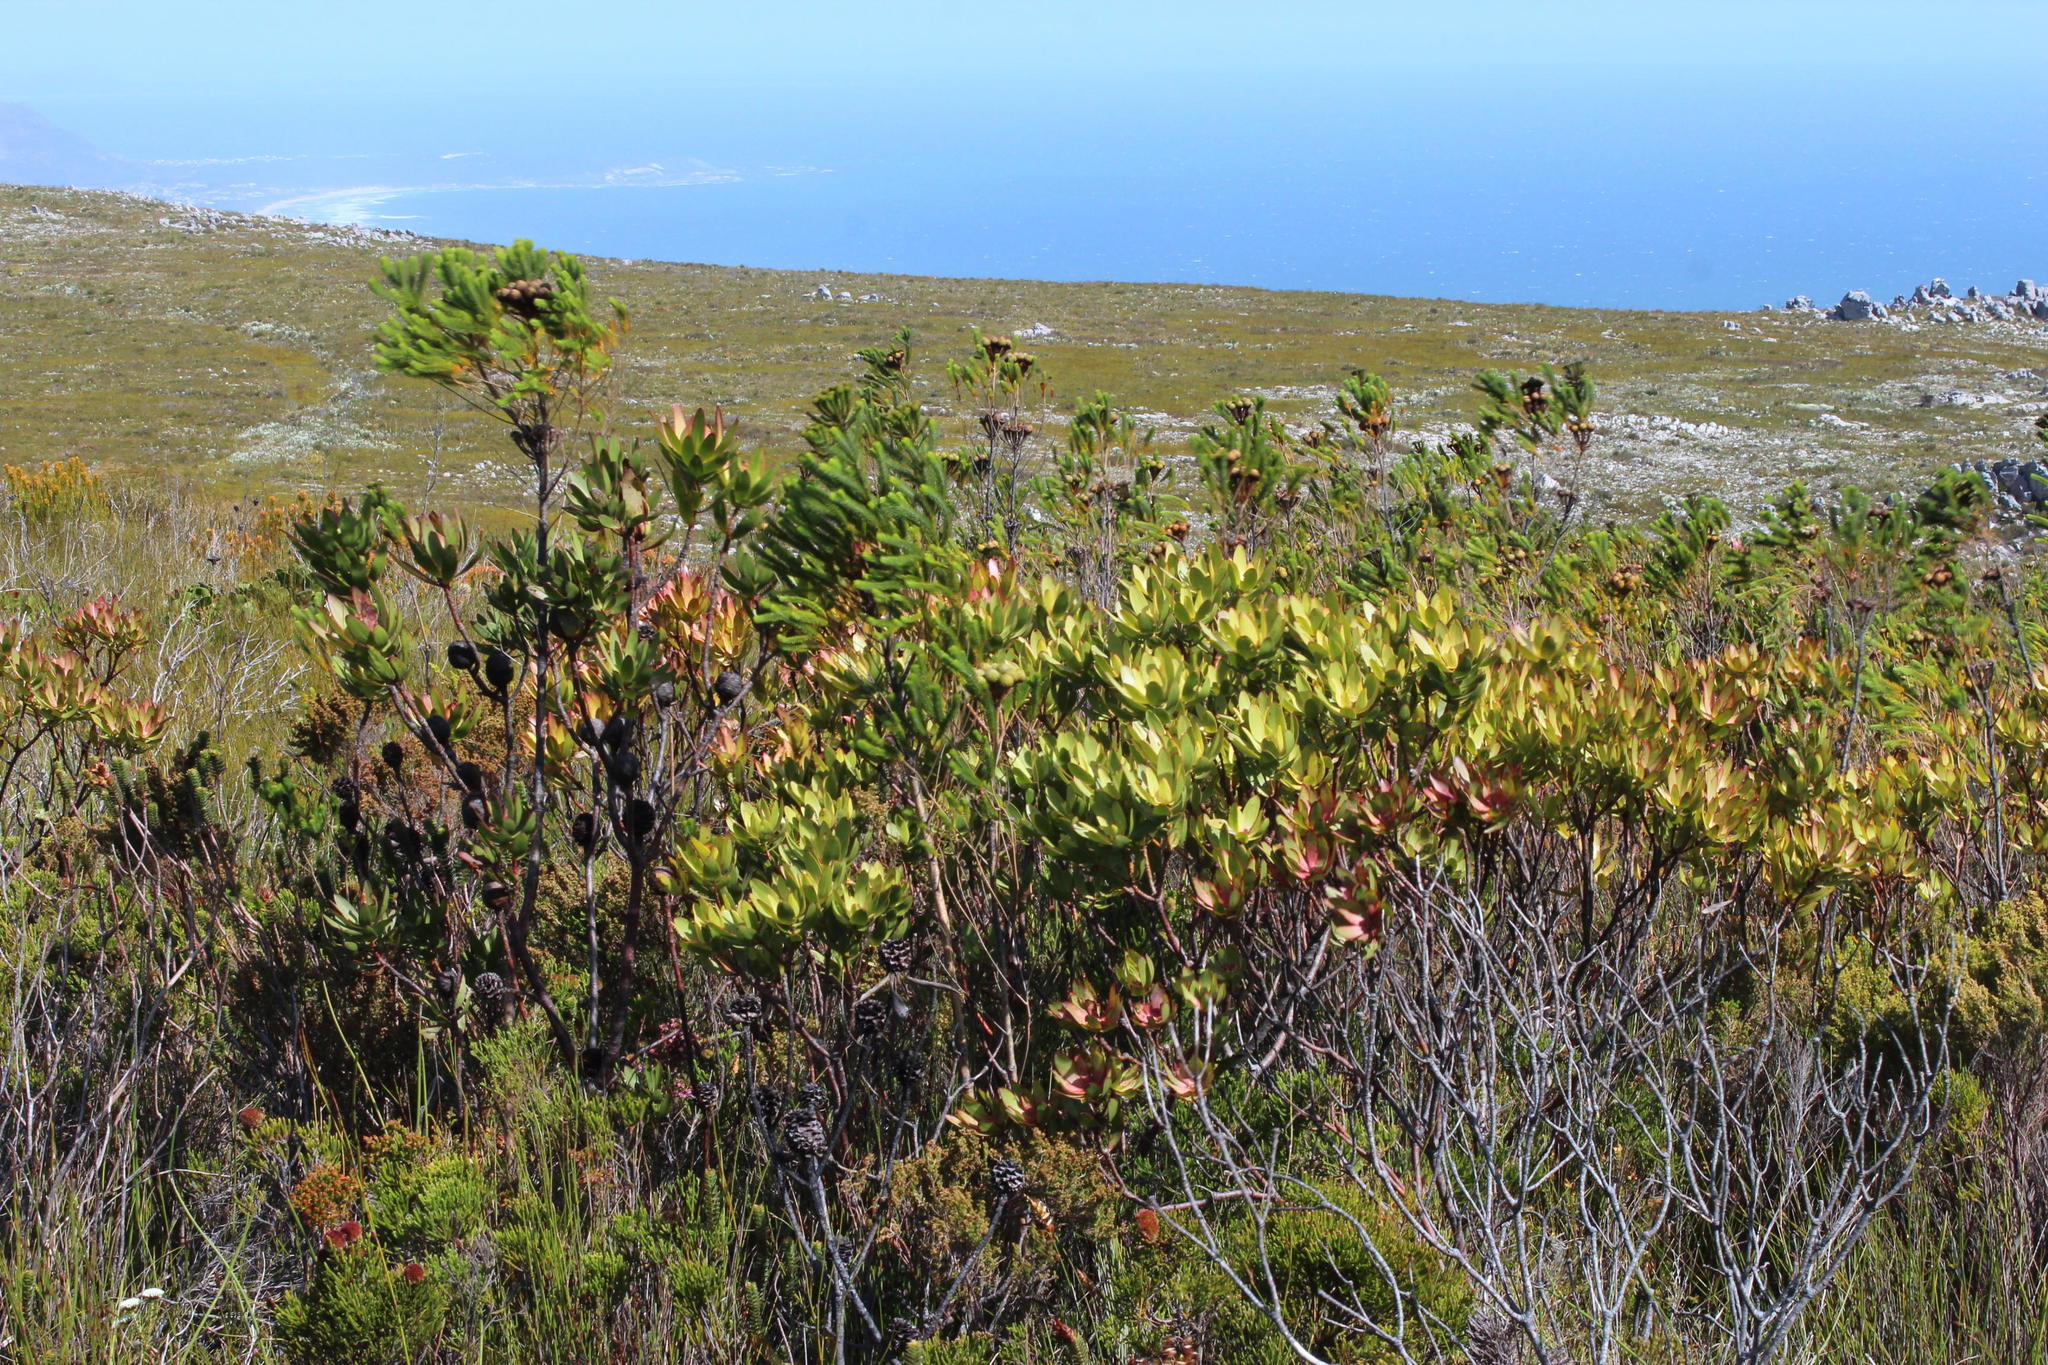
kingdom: Plantae
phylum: Tracheophyta
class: Magnoliopsida
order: Proteales
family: Proteaceae
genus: Leucadendron
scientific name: Leucadendron gandogeri
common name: Broad-leaf conebush
